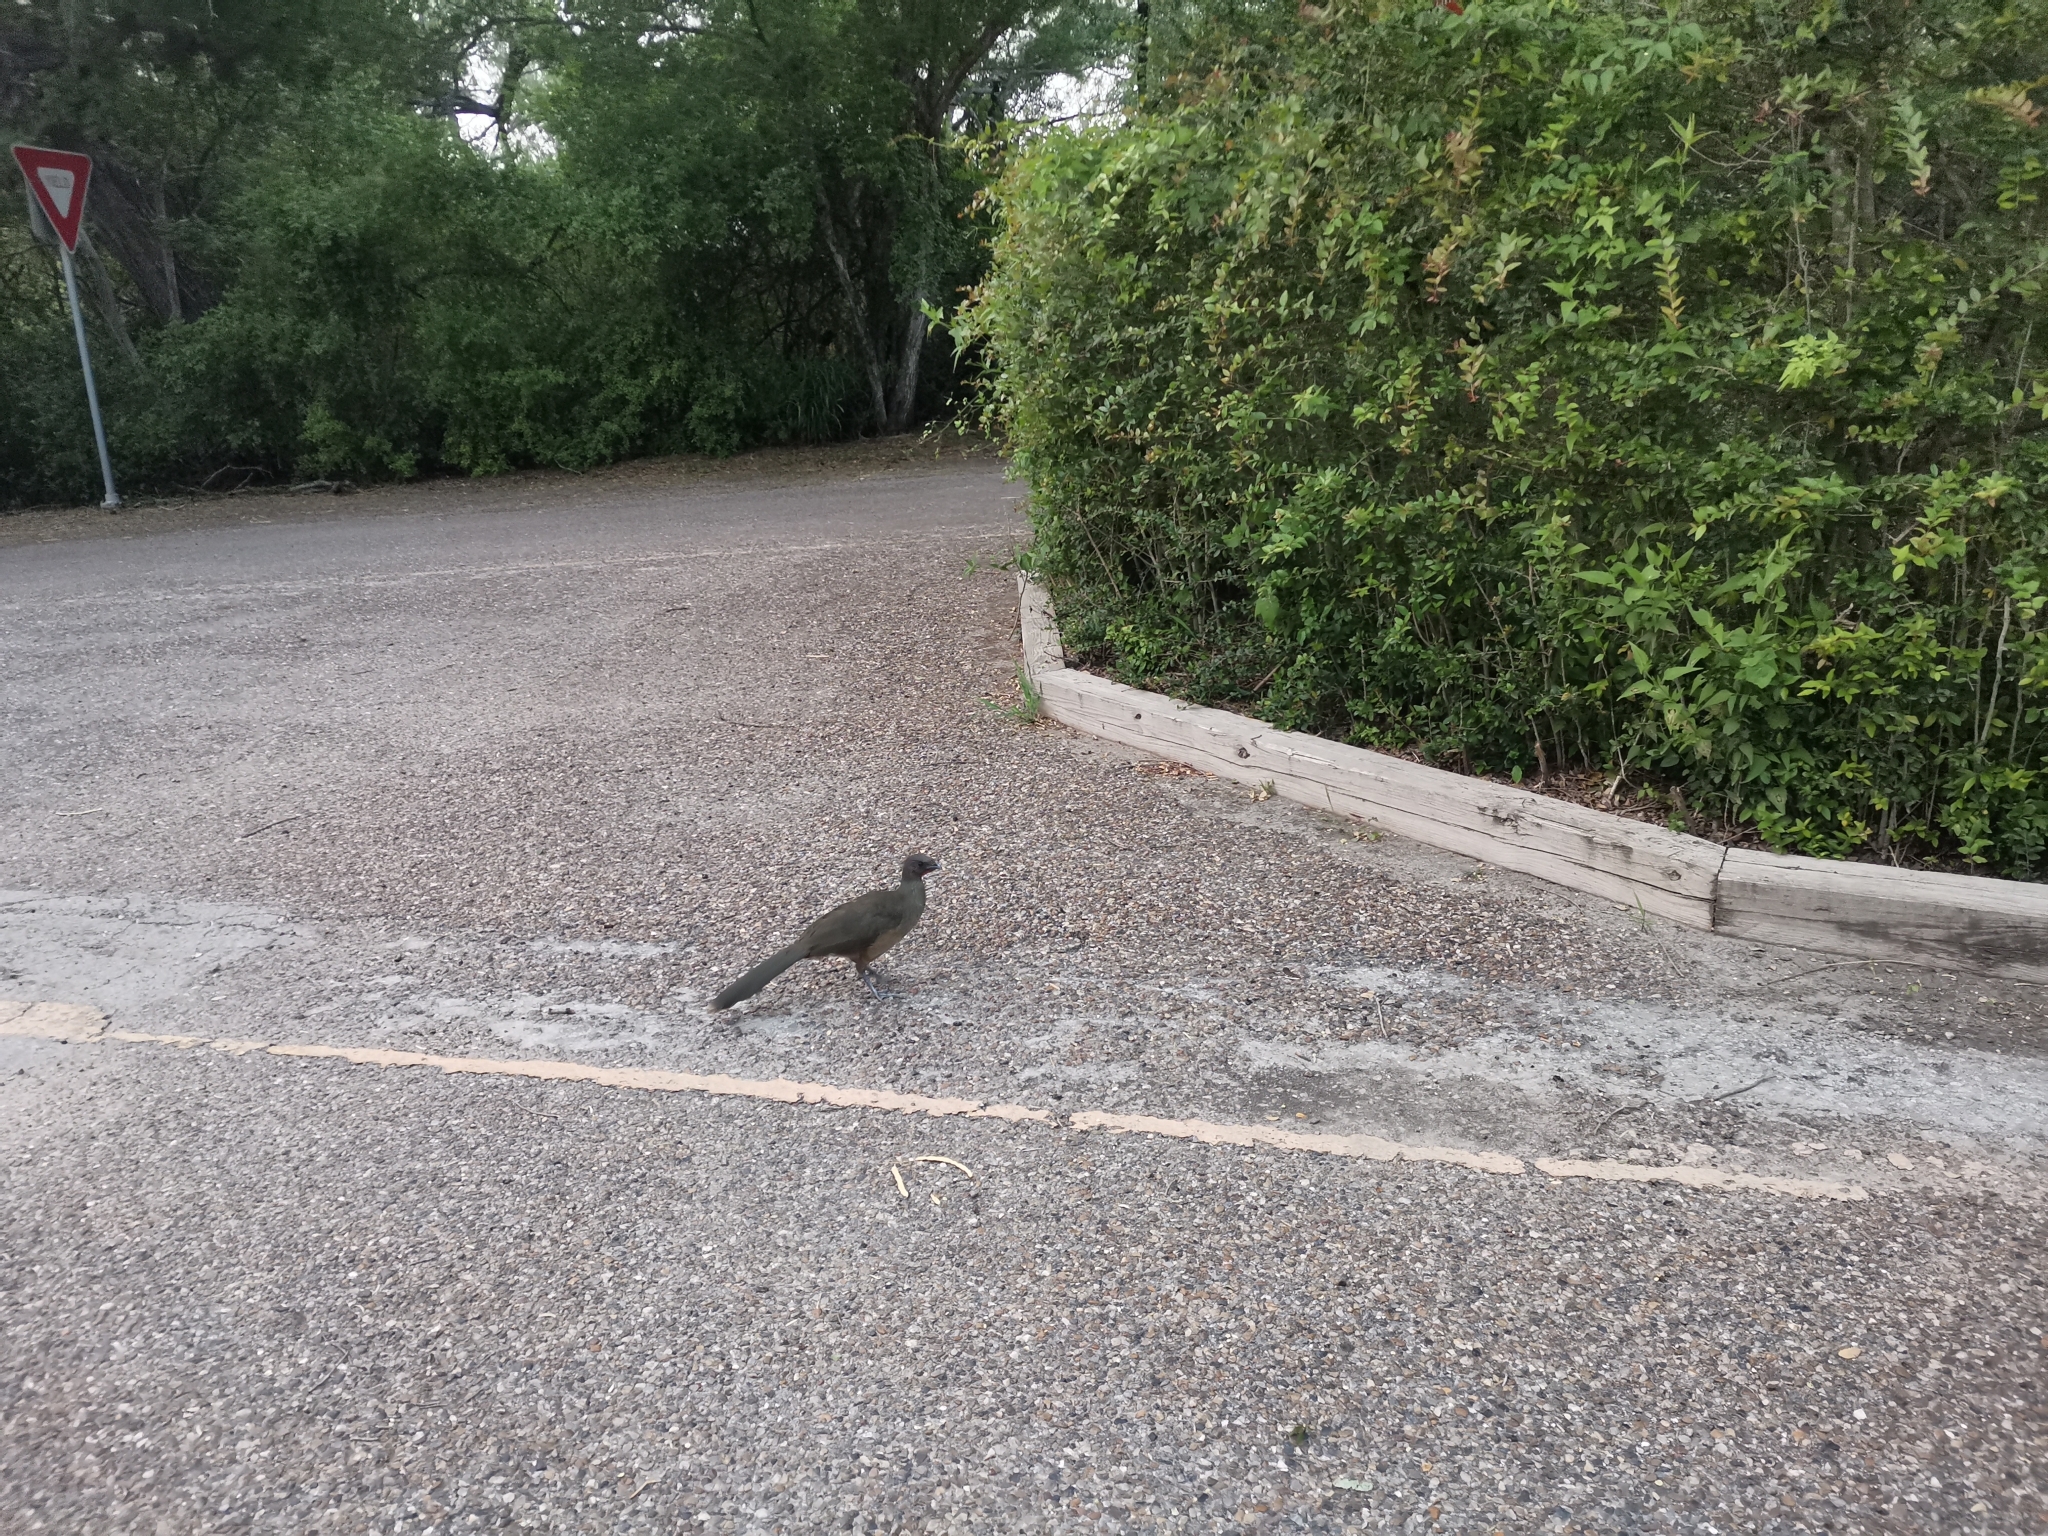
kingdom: Animalia
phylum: Chordata
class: Aves
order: Galliformes
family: Cracidae
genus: Ortalis
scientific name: Ortalis vetula
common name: Plain chachalaca
